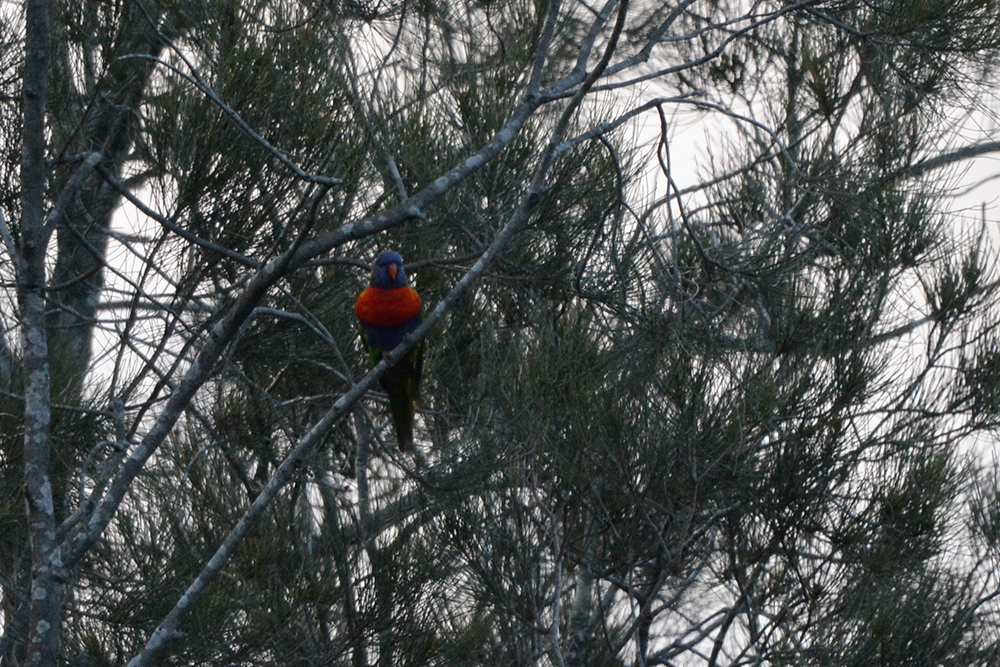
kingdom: Animalia
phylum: Chordata
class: Aves
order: Psittaciformes
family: Psittacidae
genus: Trichoglossus
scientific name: Trichoglossus haematodus
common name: Coconut lorikeet
